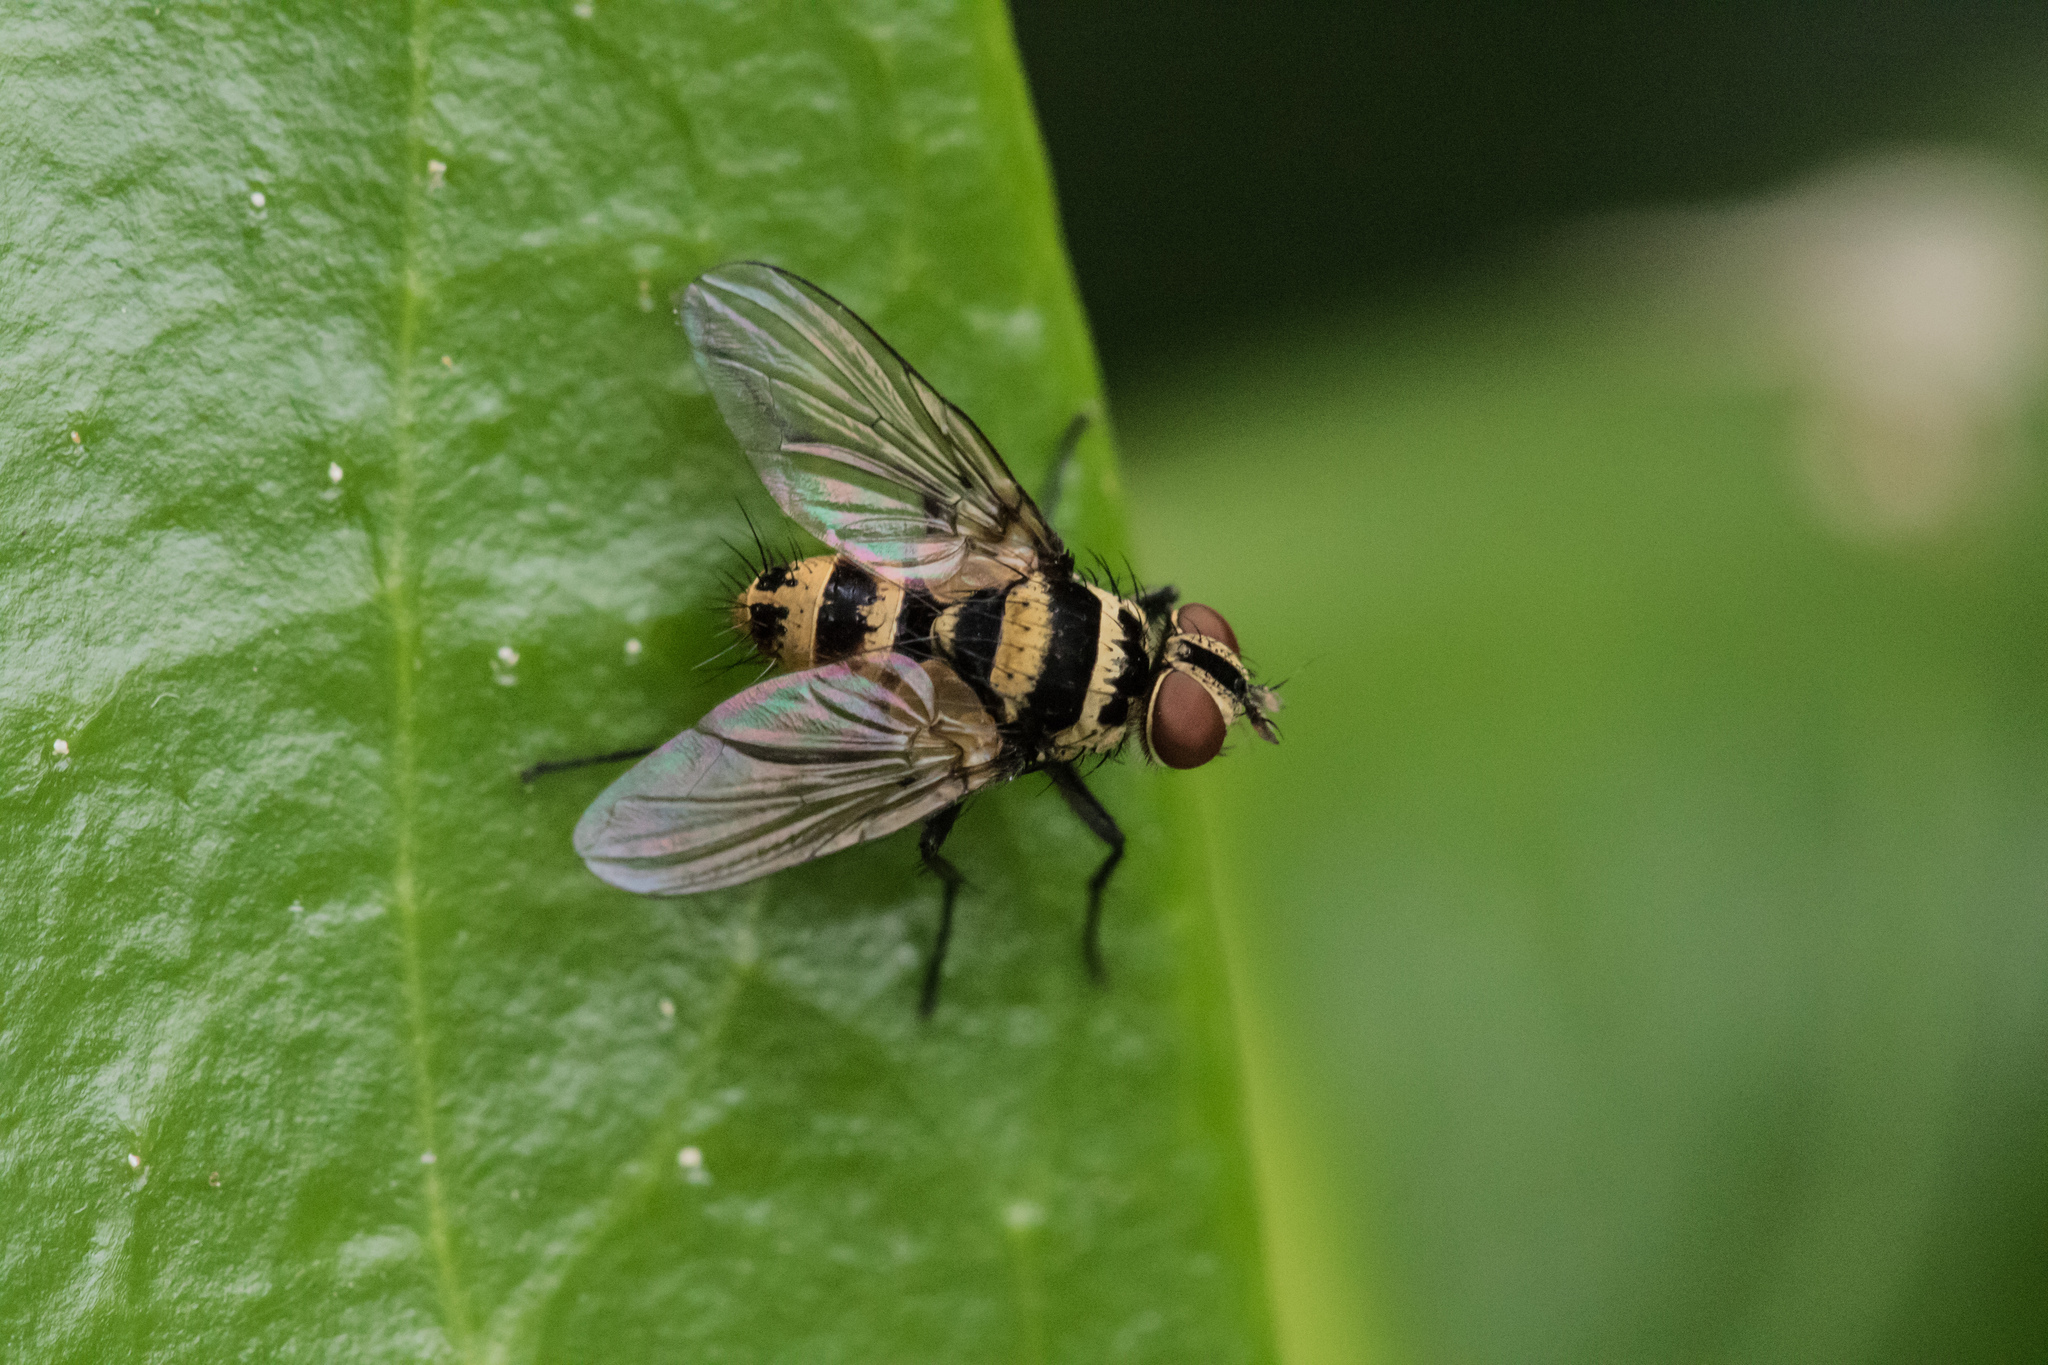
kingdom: Animalia
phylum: Arthropoda
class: Insecta
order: Diptera
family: Tachinidae
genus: Trigonospila
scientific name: Trigonospila brevifacies
